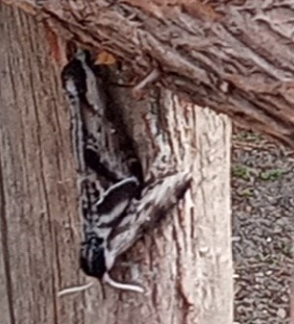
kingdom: Animalia
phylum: Arthropoda
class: Insecta
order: Lepidoptera
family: Sphingidae
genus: Sphinx
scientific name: Sphinx gordius
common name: Apple sphinx
